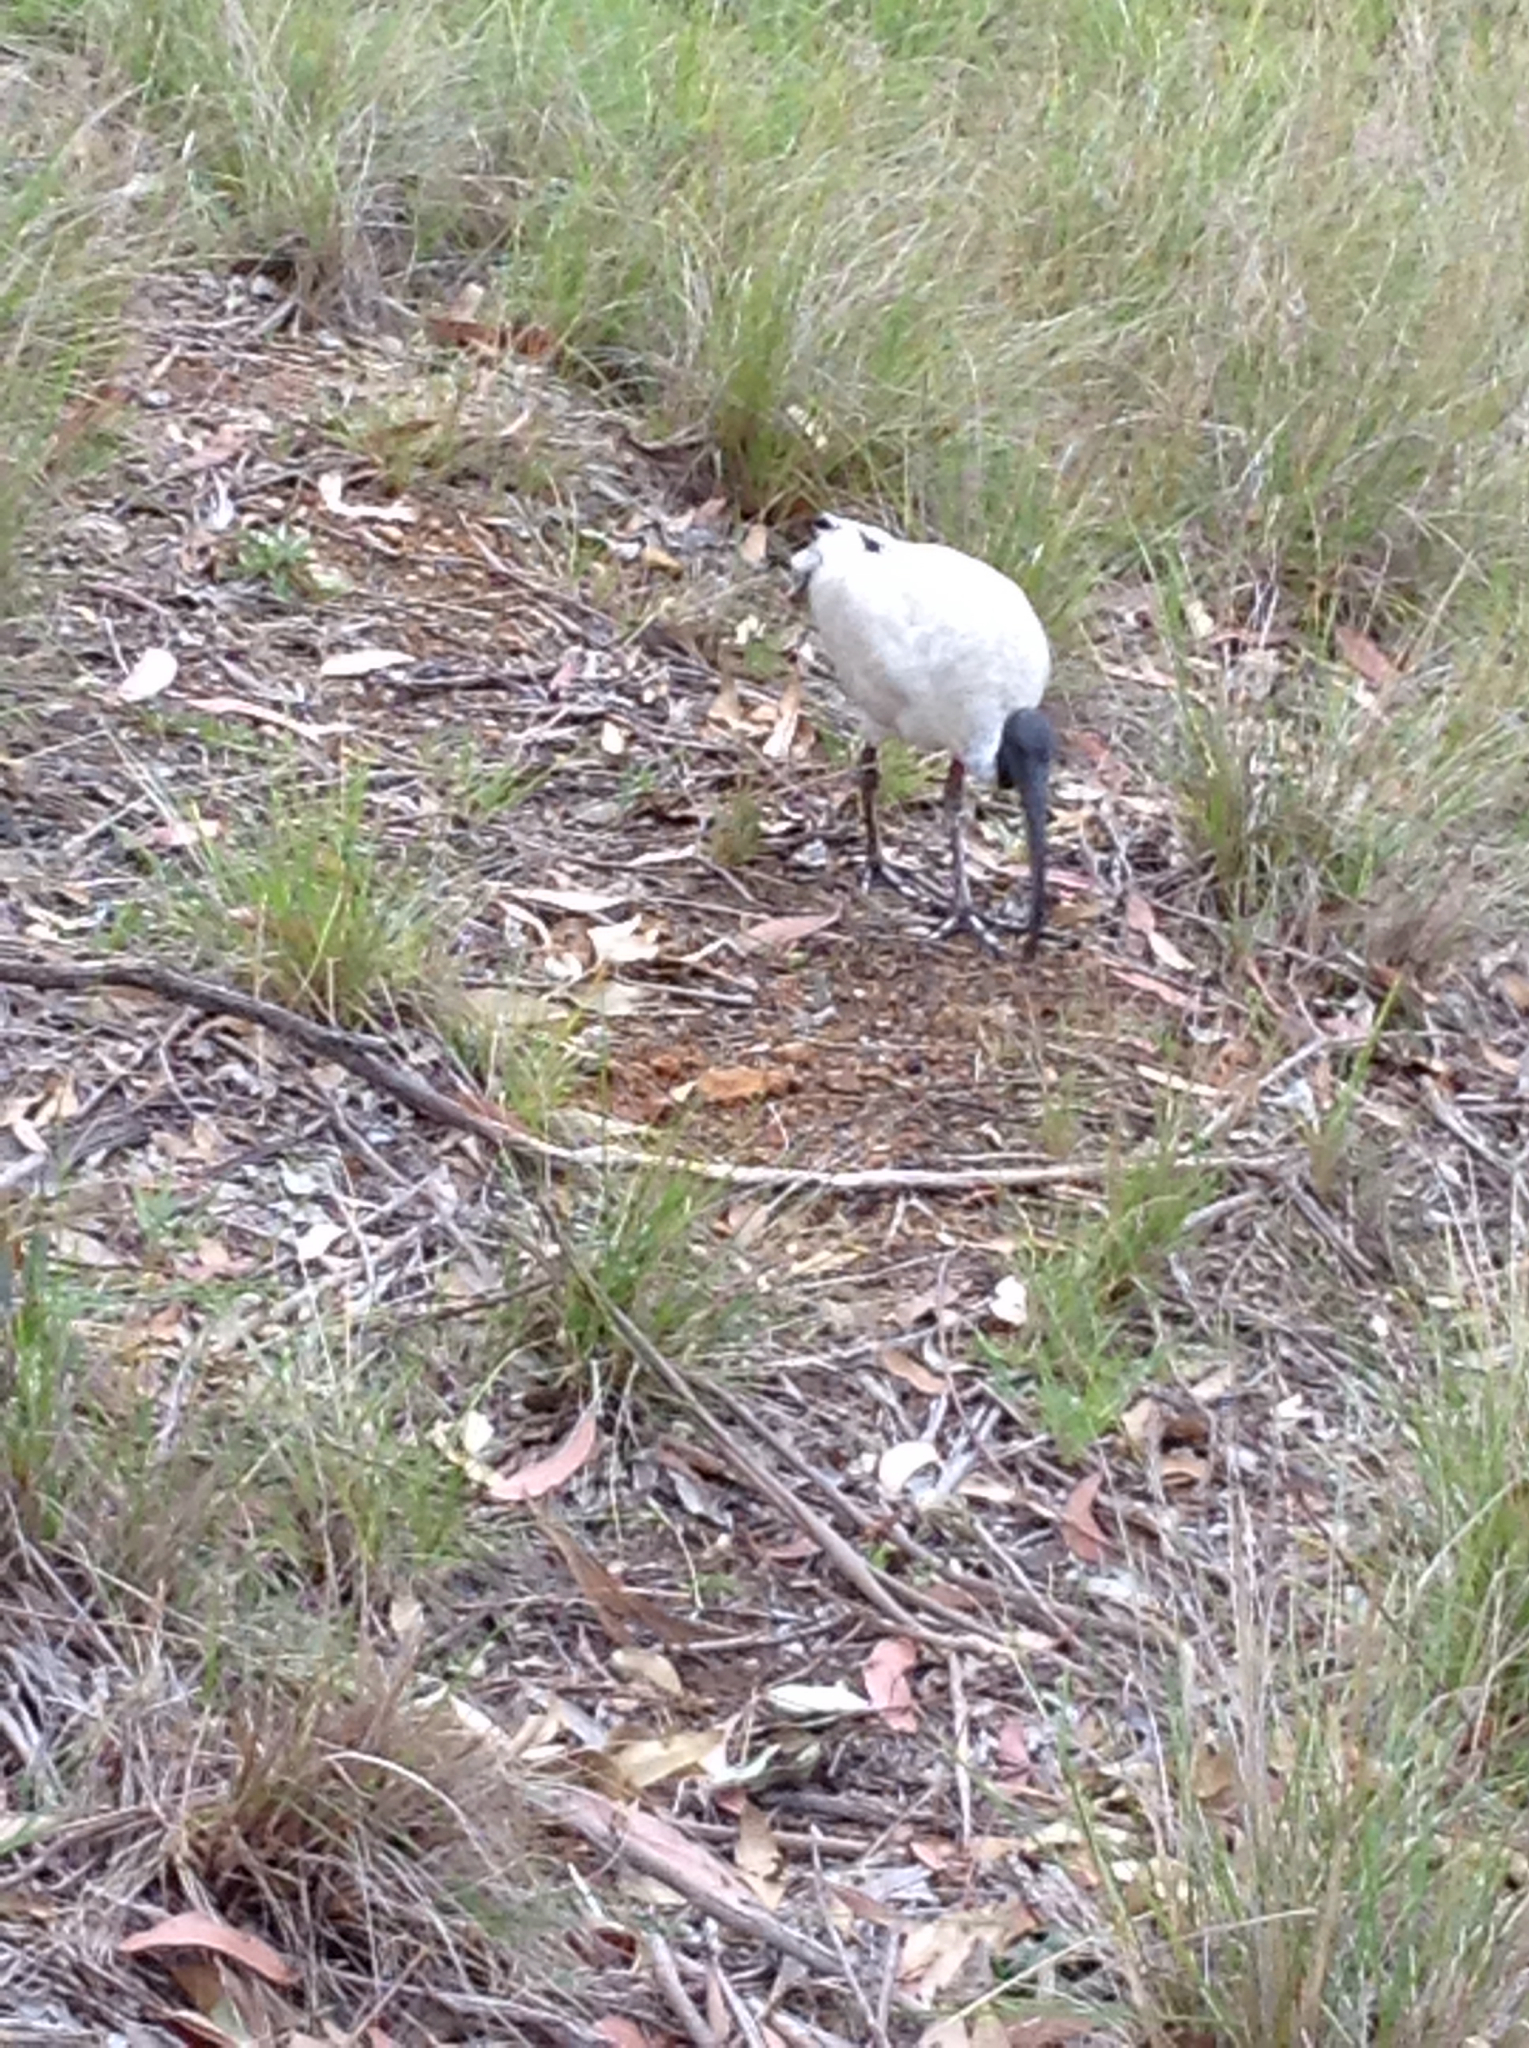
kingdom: Animalia
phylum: Chordata
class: Aves
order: Pelecaniformes
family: Threskiornithidae
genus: Threskiornis
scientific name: Threskiornis molucca
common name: Australian white ibis
